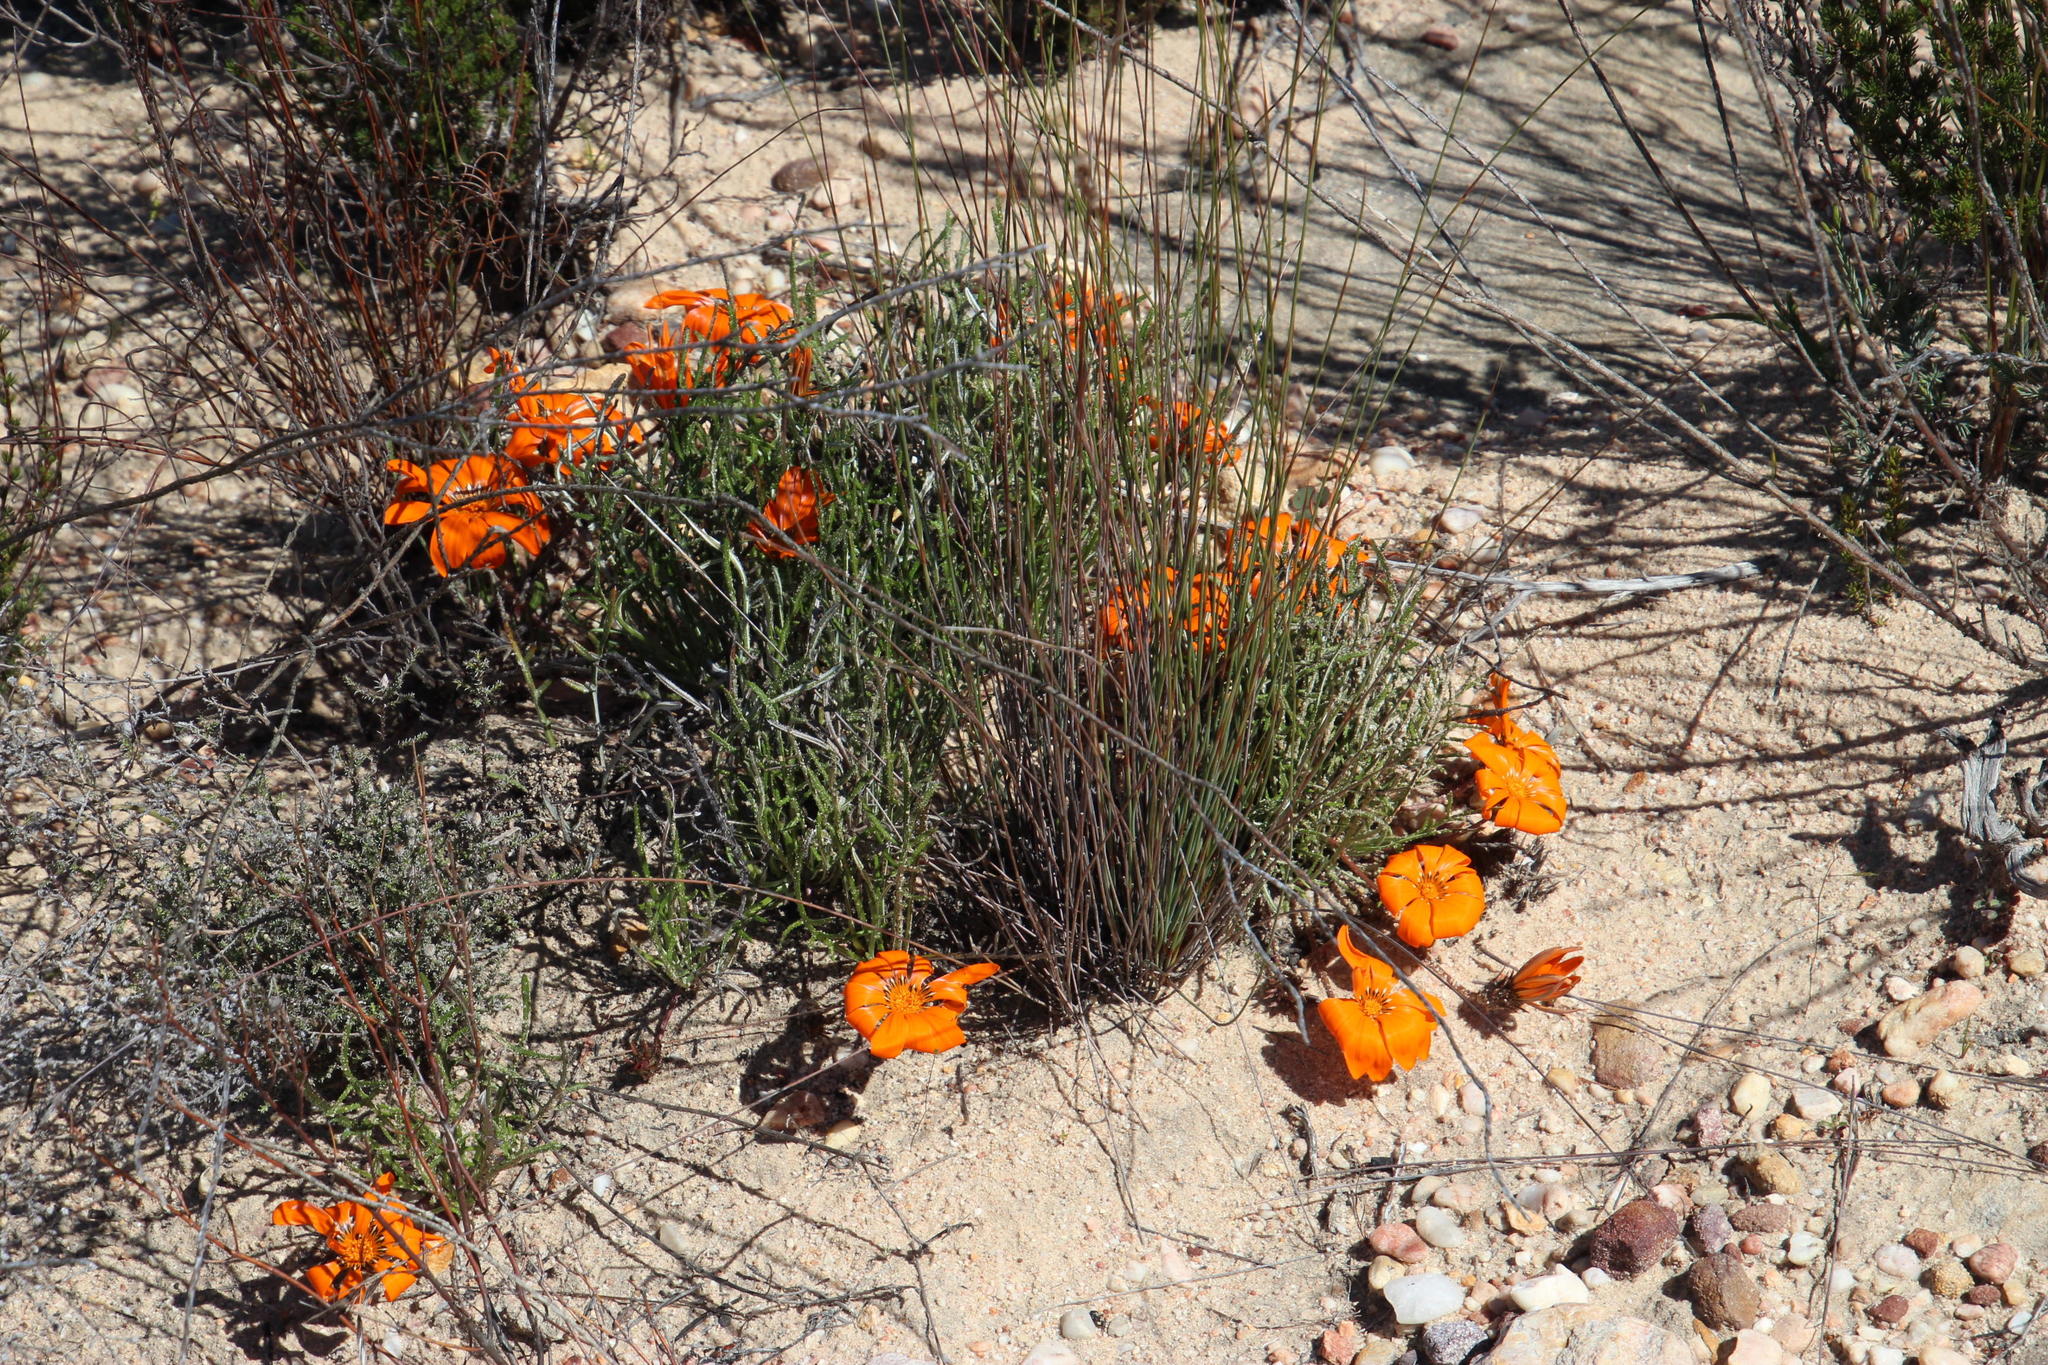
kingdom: Plantae
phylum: Tracheophyta
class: Magnoliopsida
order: Asterales
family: Asteraceae
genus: Gazania
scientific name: Gazania serrata
